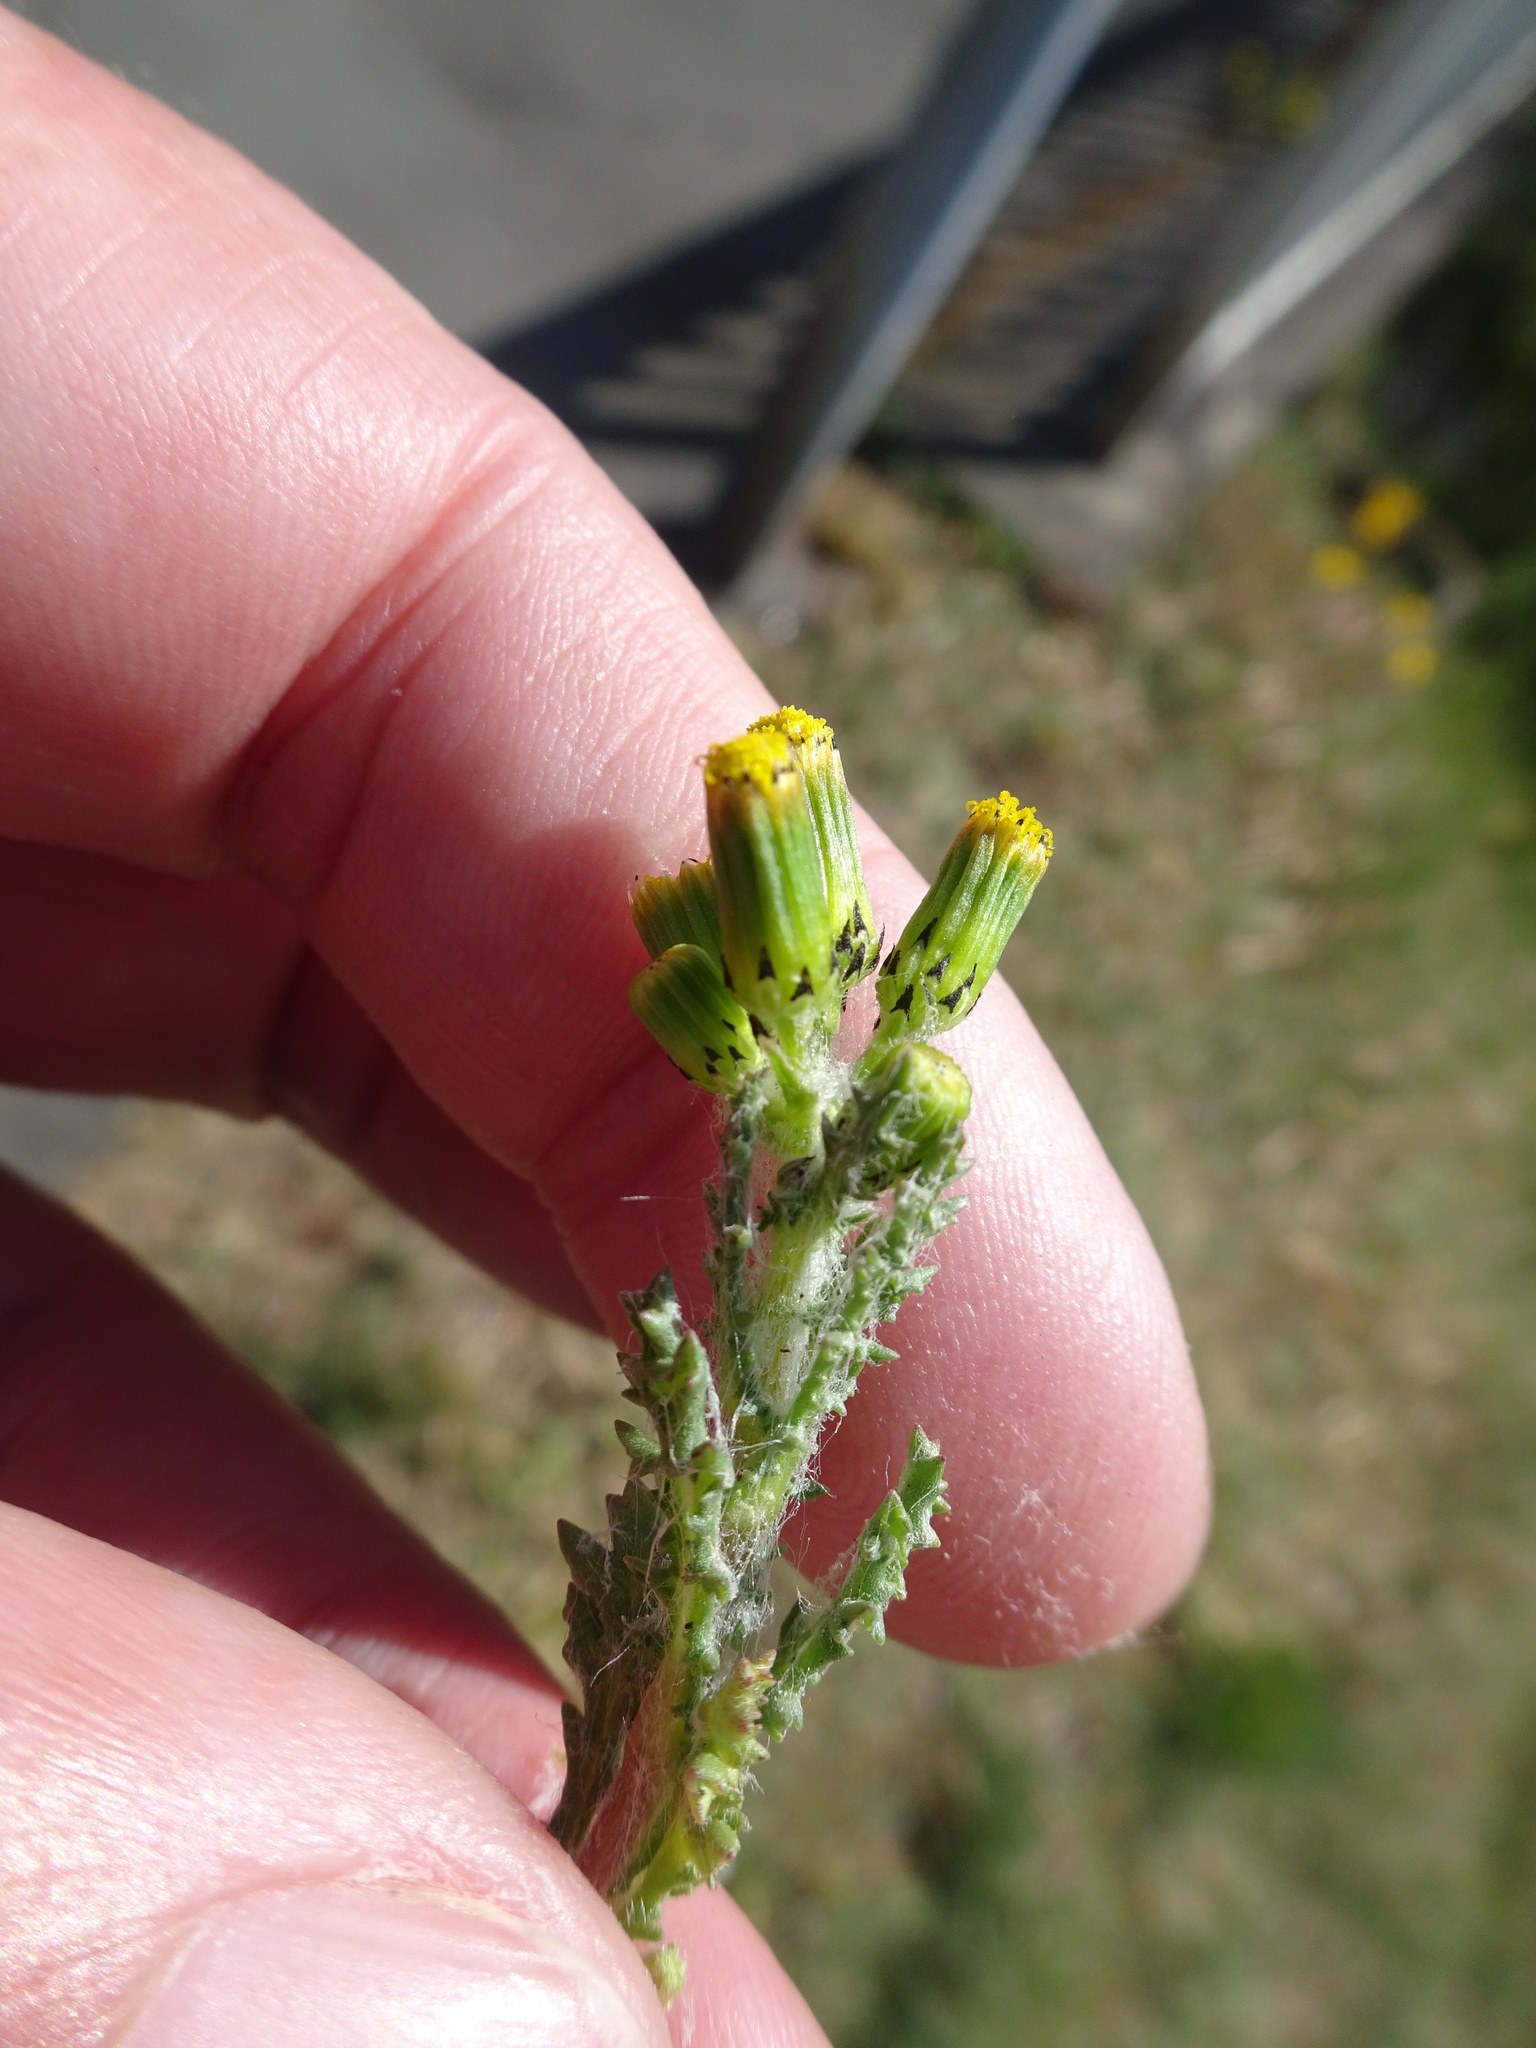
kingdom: Plantae
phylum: Tracheophyta
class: Magnoliopsida
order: Asterales
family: Asteraceae
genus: Senecio
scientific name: Senecio vulgaris
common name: Old-man-in-the-spring
